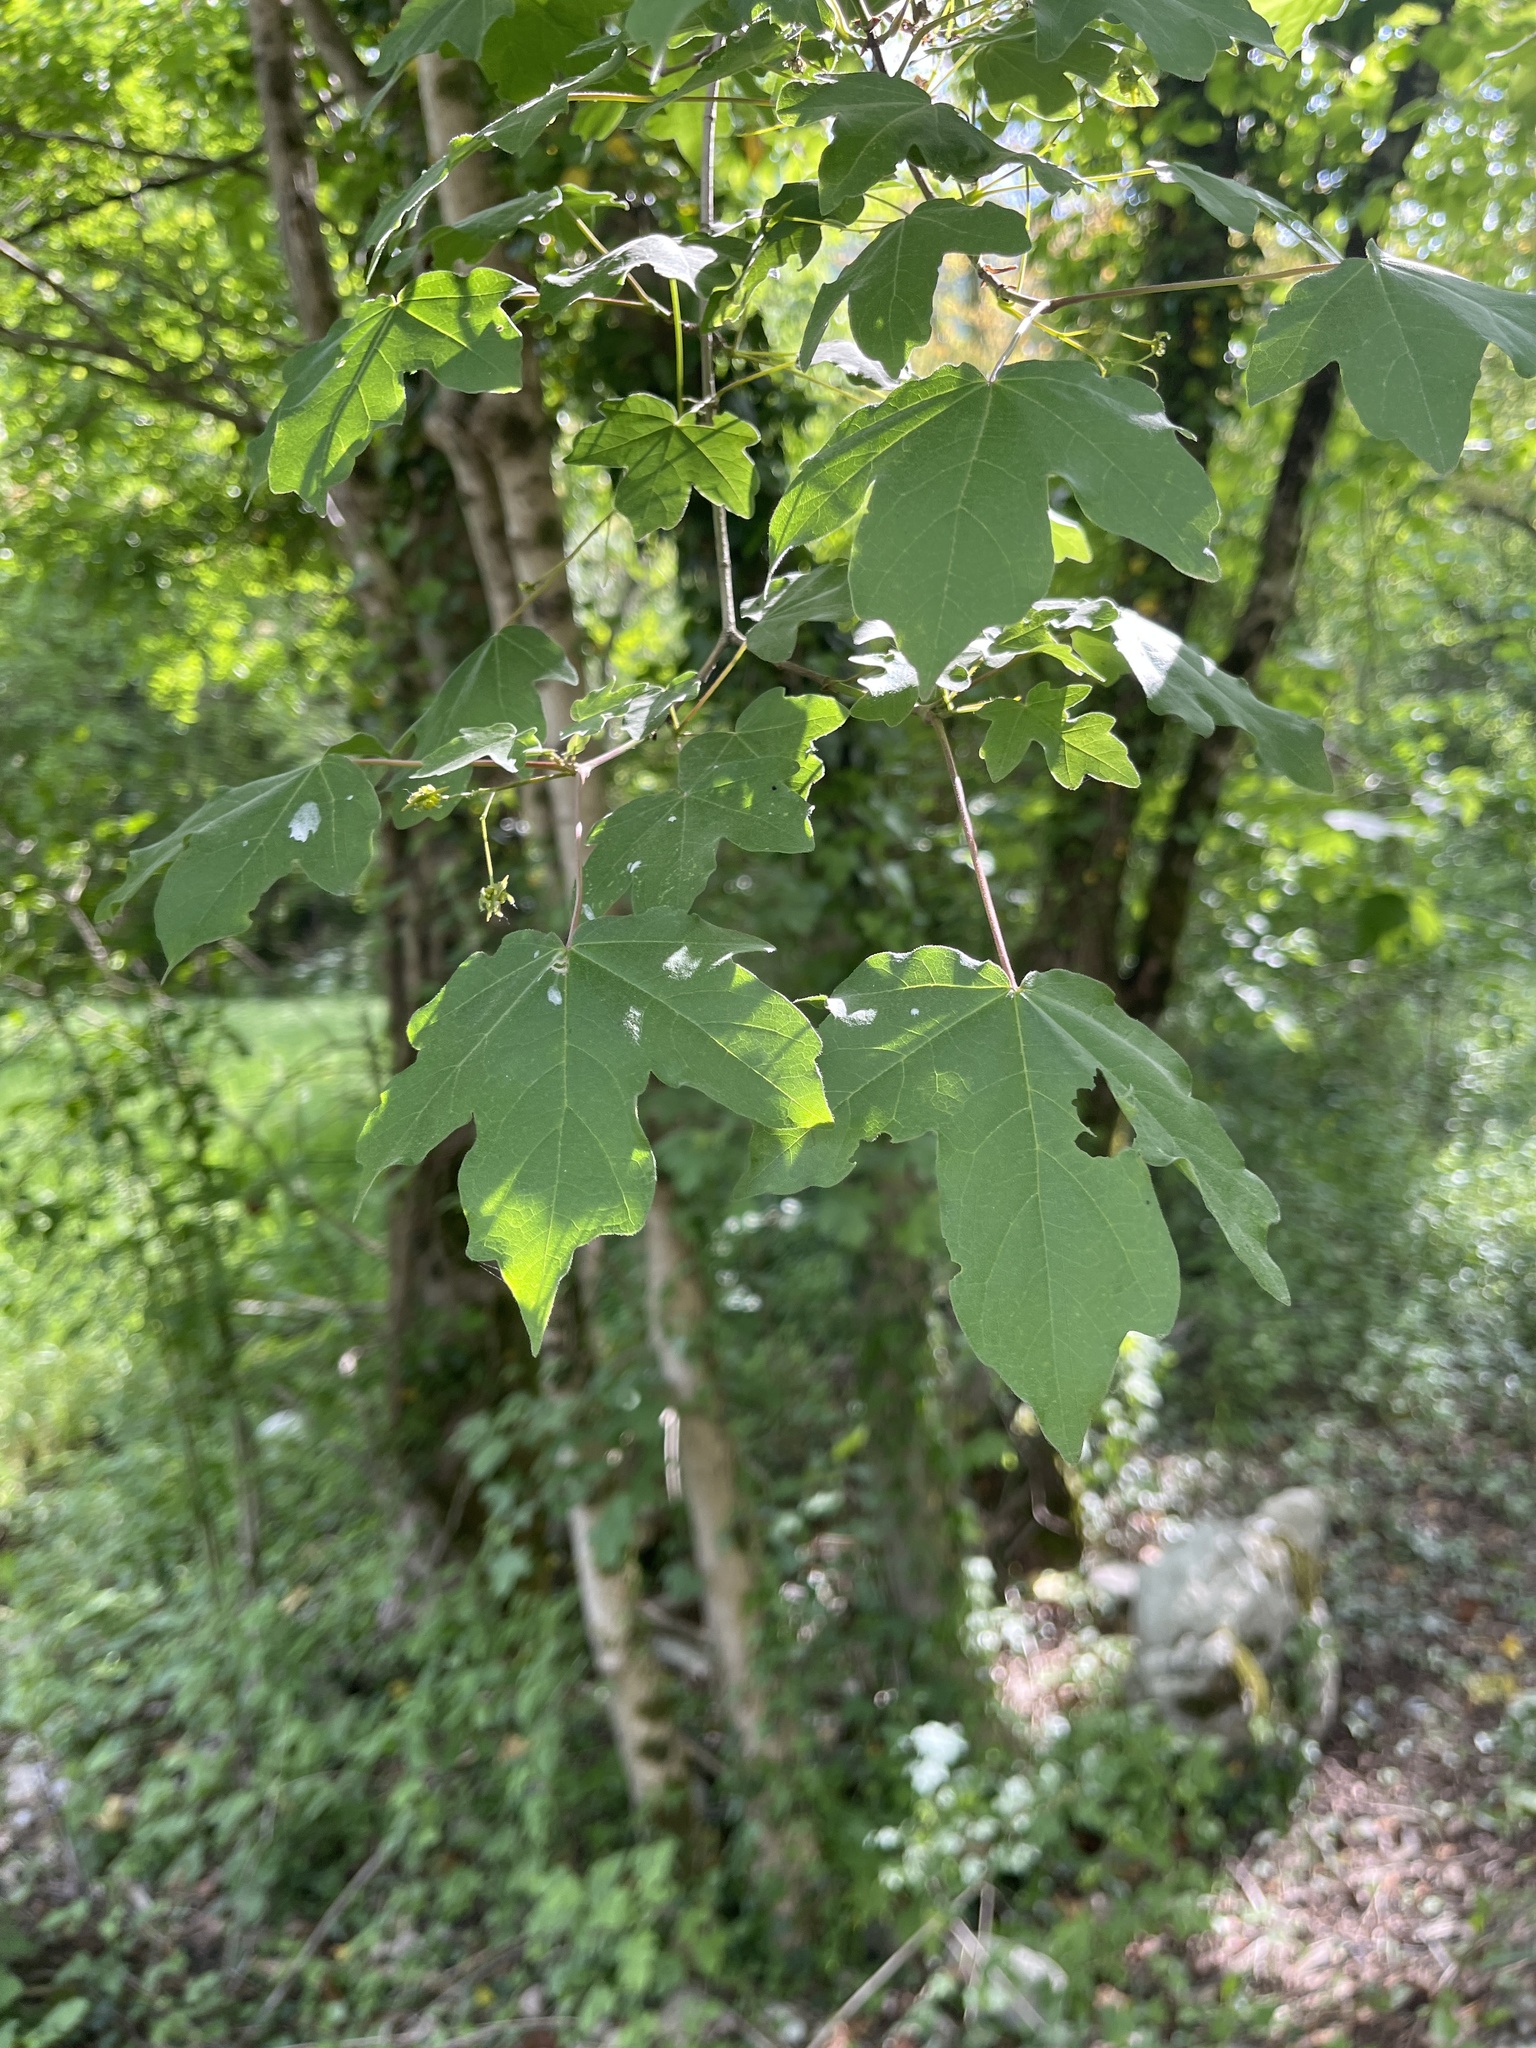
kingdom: Plantae
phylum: Tracheophyta
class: Magnoliopsida
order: Sapindales
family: Sapindaceae
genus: Acer
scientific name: Acer campestre
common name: Field maple
